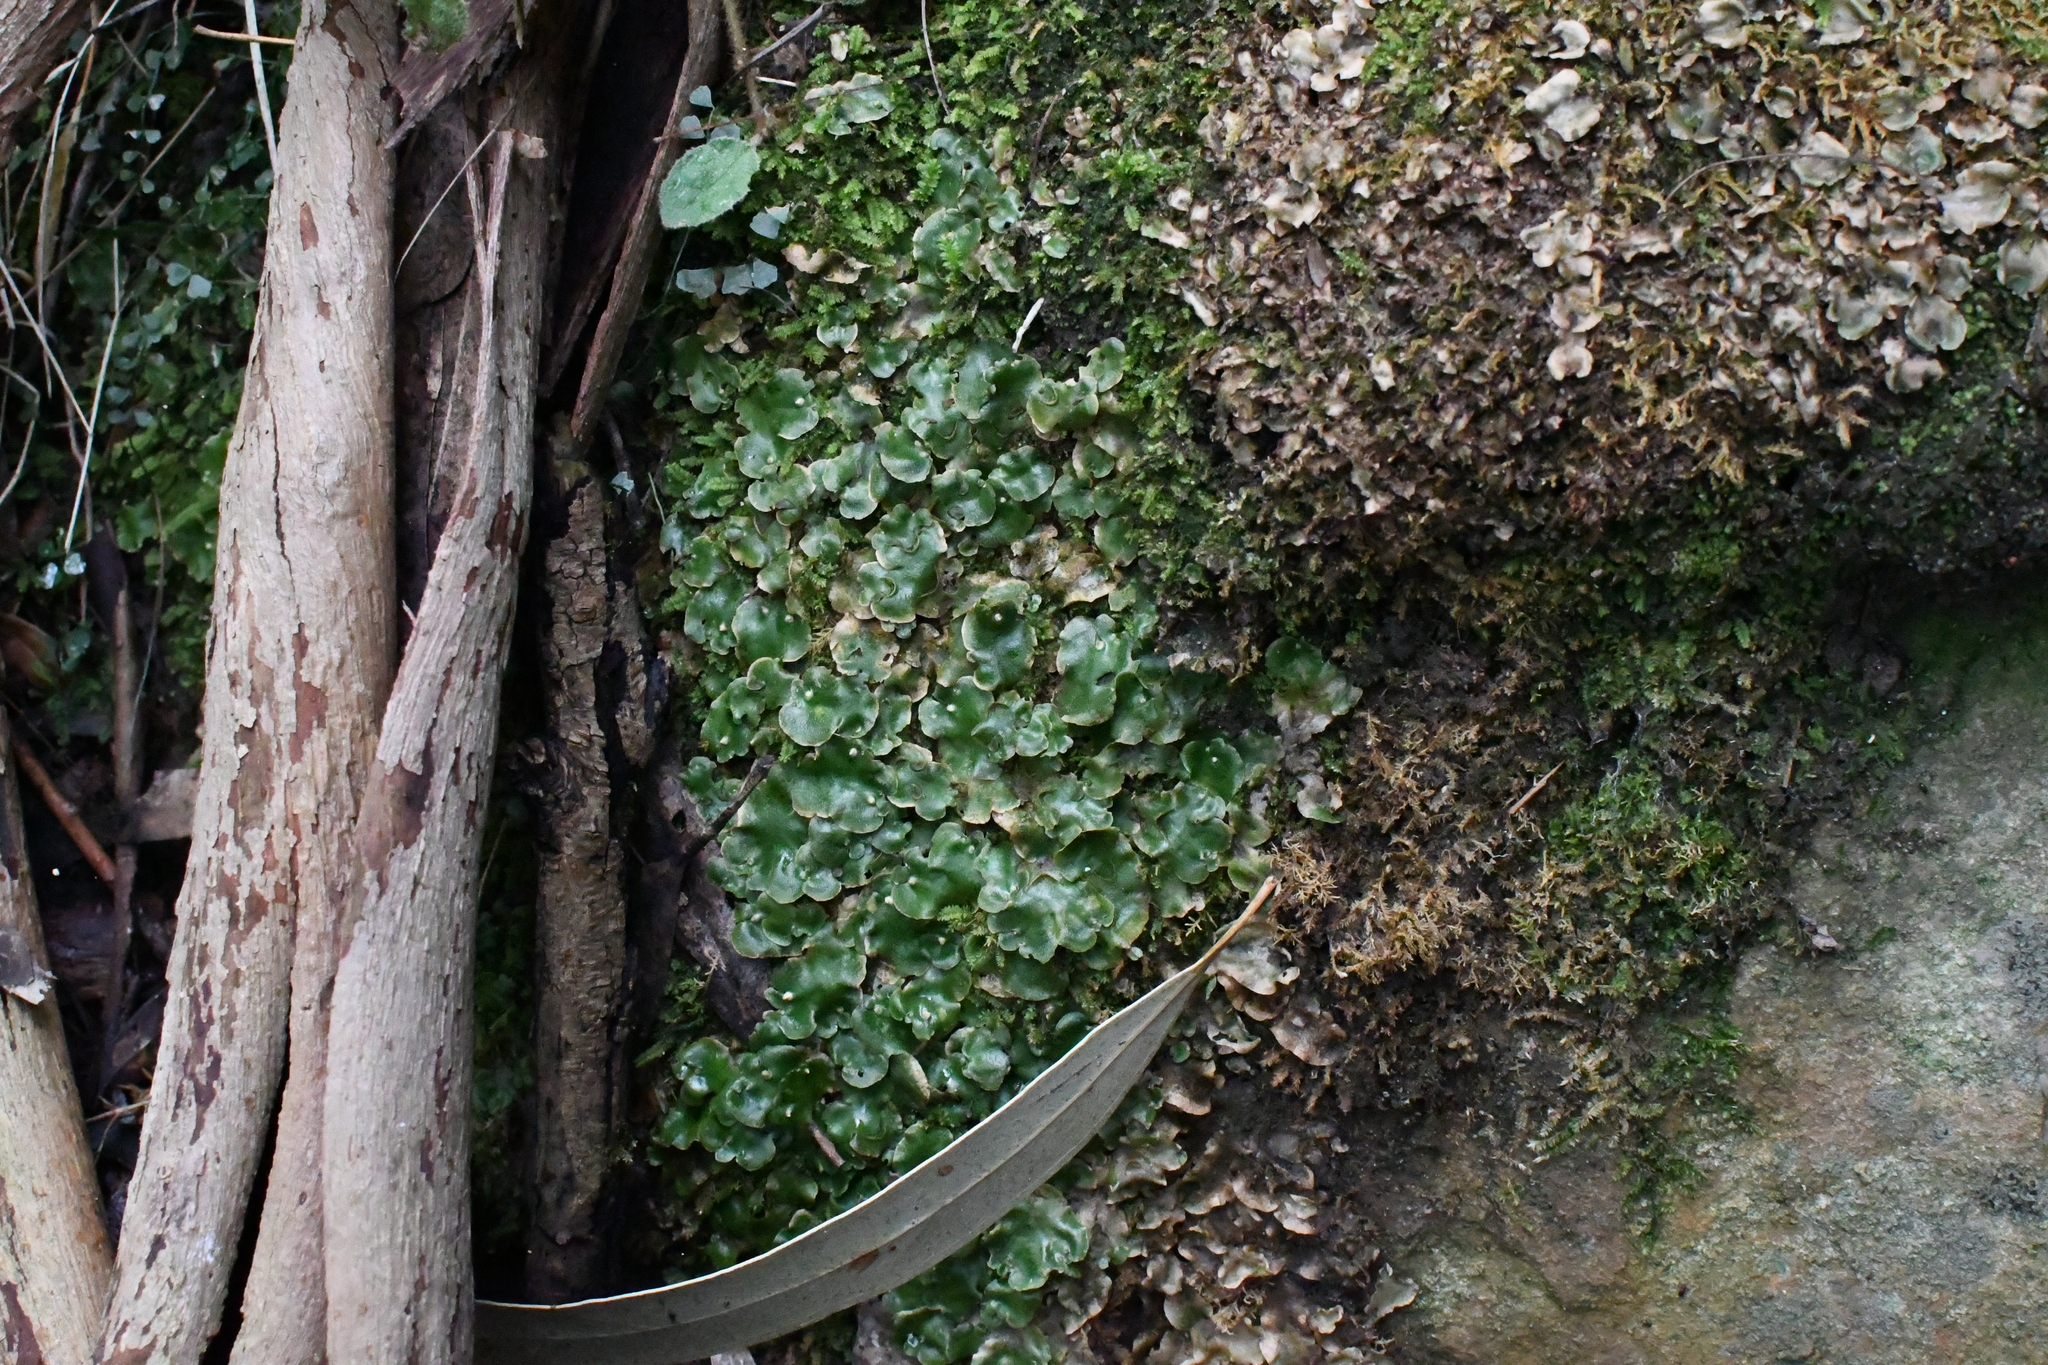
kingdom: Plantae
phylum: Marchantiophyta
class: Marchantiopsida
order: Lunulariales
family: Lunulariaceae
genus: Lunularia
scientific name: Lunularia cruciata
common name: Crescent-cup liverwort
